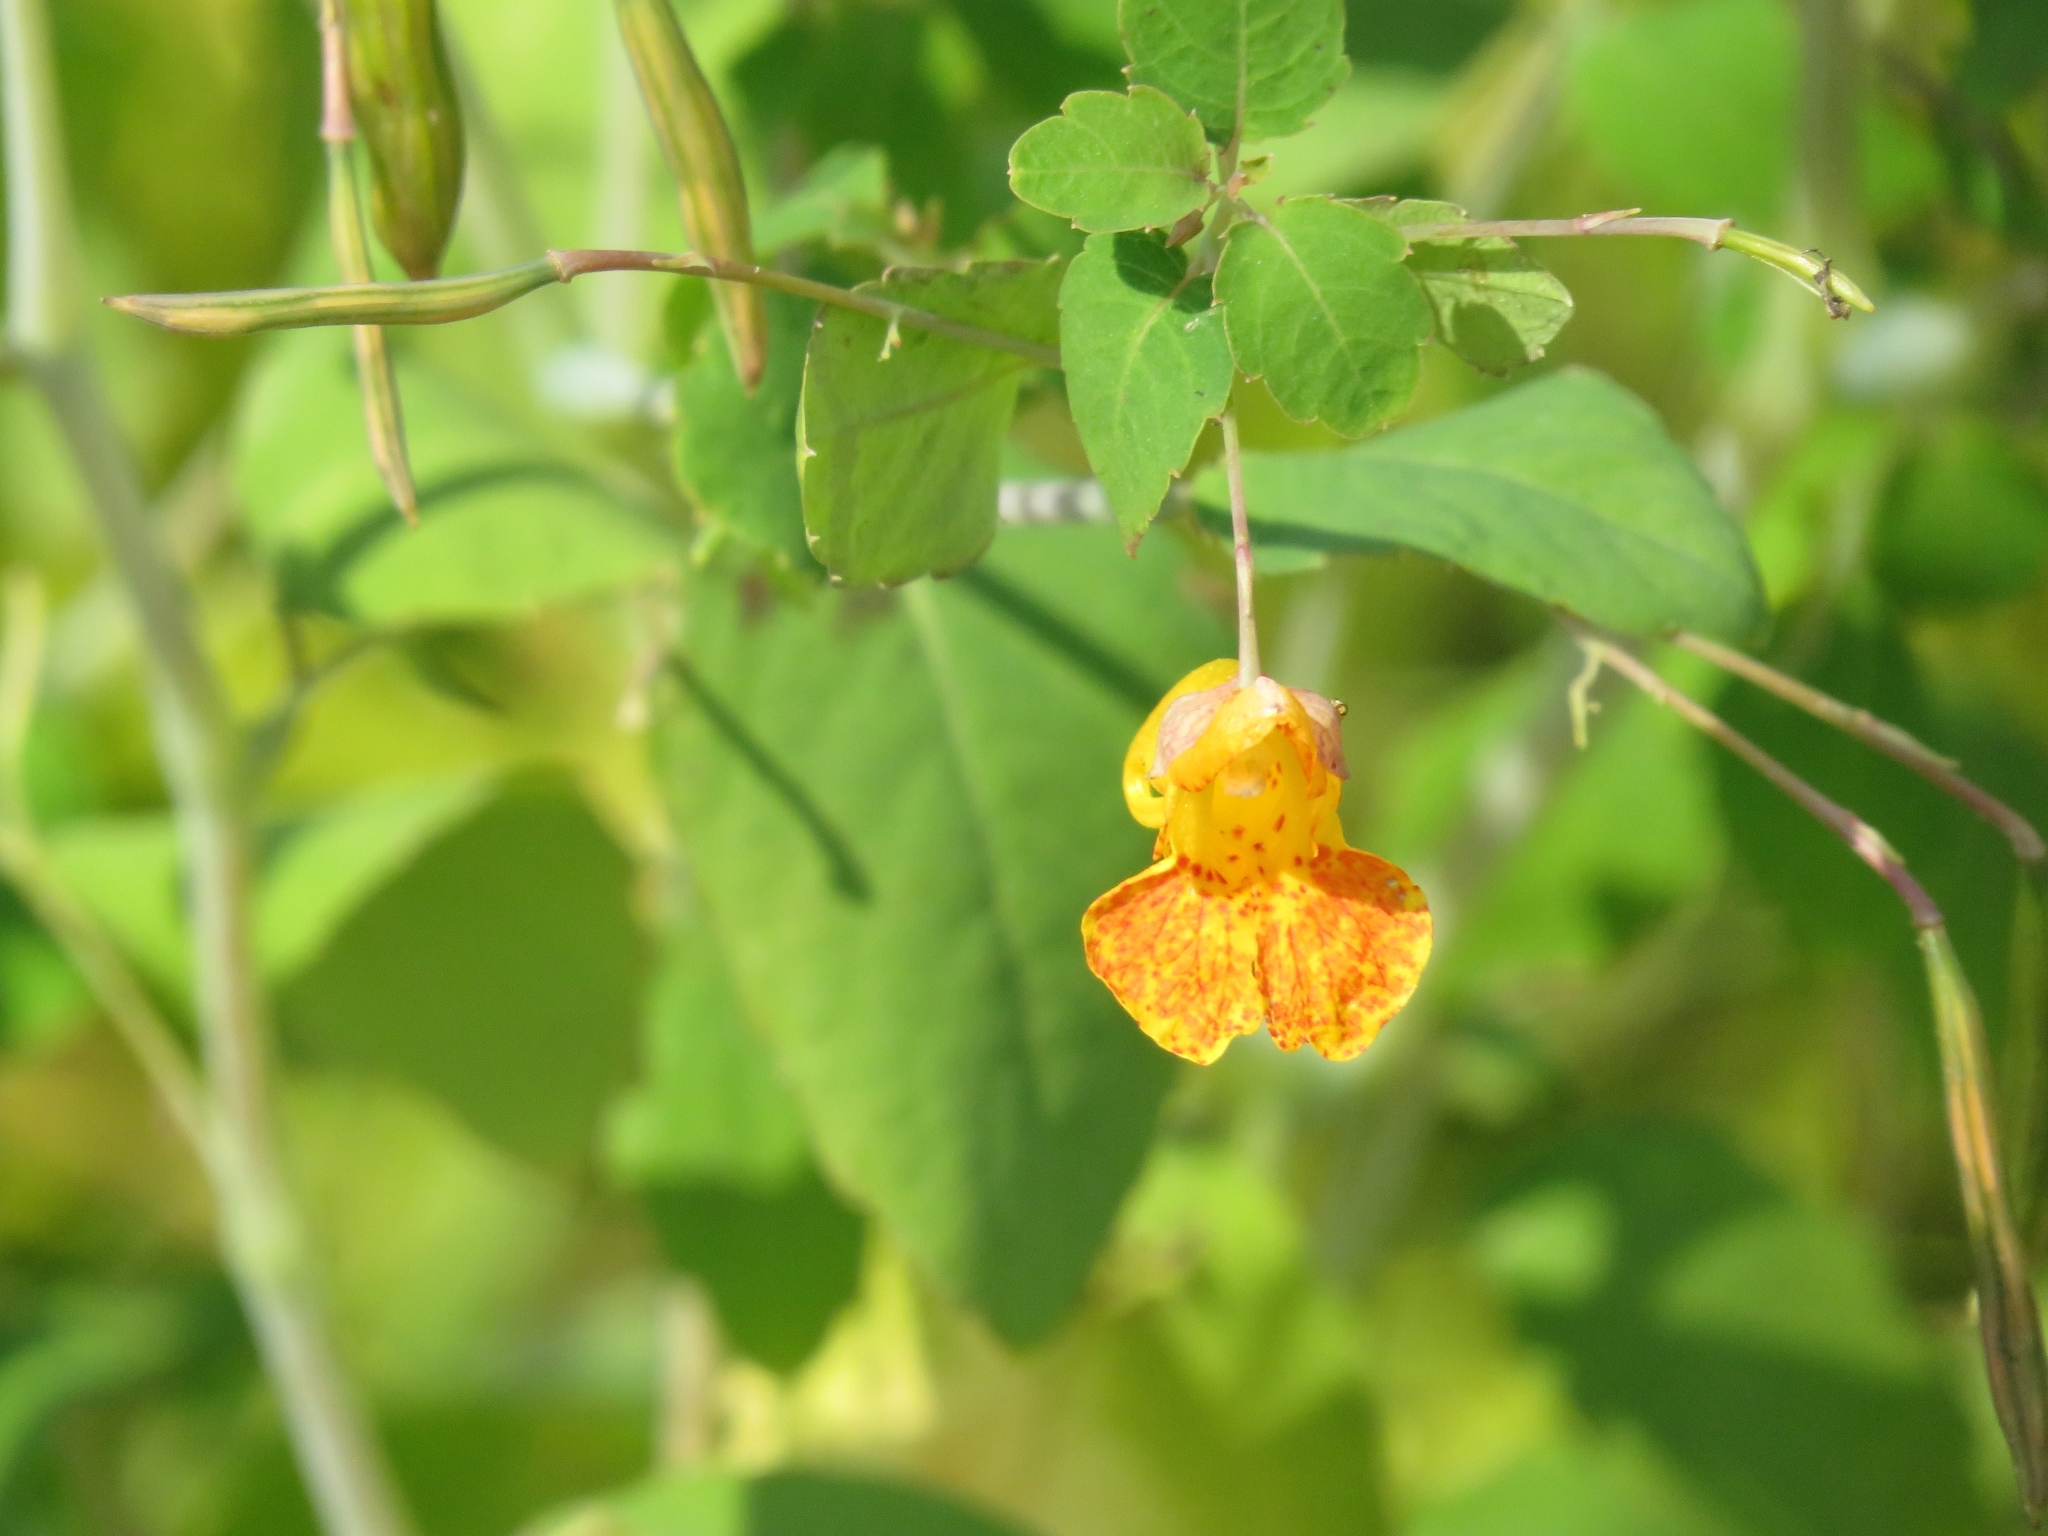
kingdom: Plantae
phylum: Tracheophyta
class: Magnoliopsida
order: Ericales
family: Balsaminaceae
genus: Impatiens
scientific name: Impatiens capensis
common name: Orange balsam
